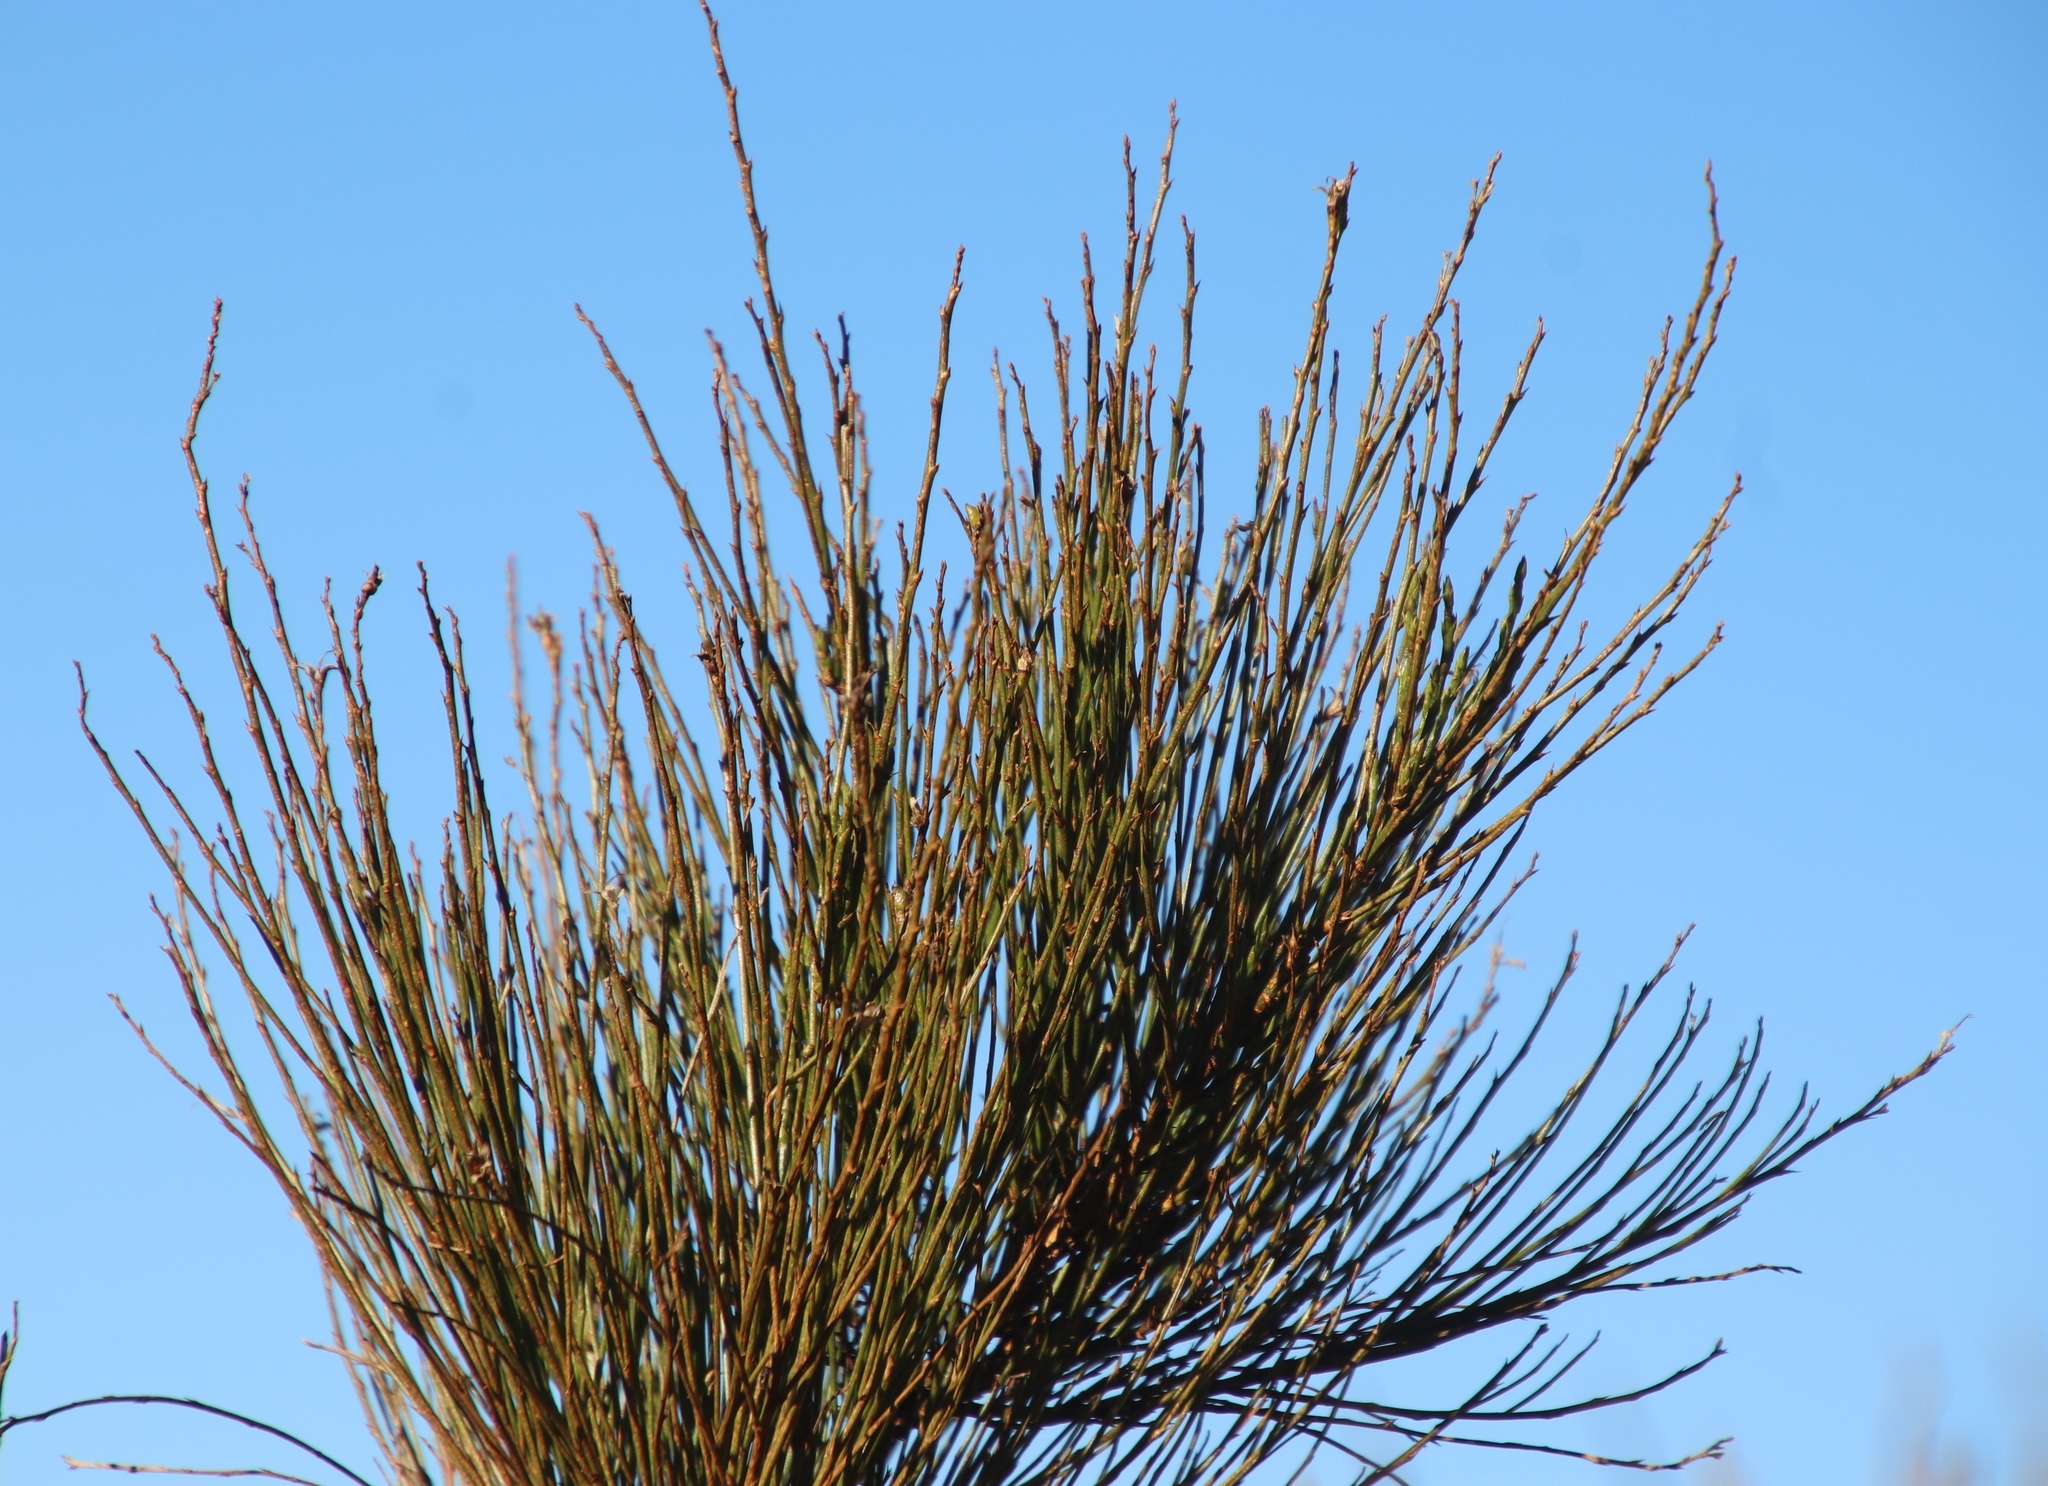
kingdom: Plantae
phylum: Tracheophyta
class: Magnoliopsida
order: Fabales
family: Fabaceae
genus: Psoralea
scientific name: Psoralea usitata
